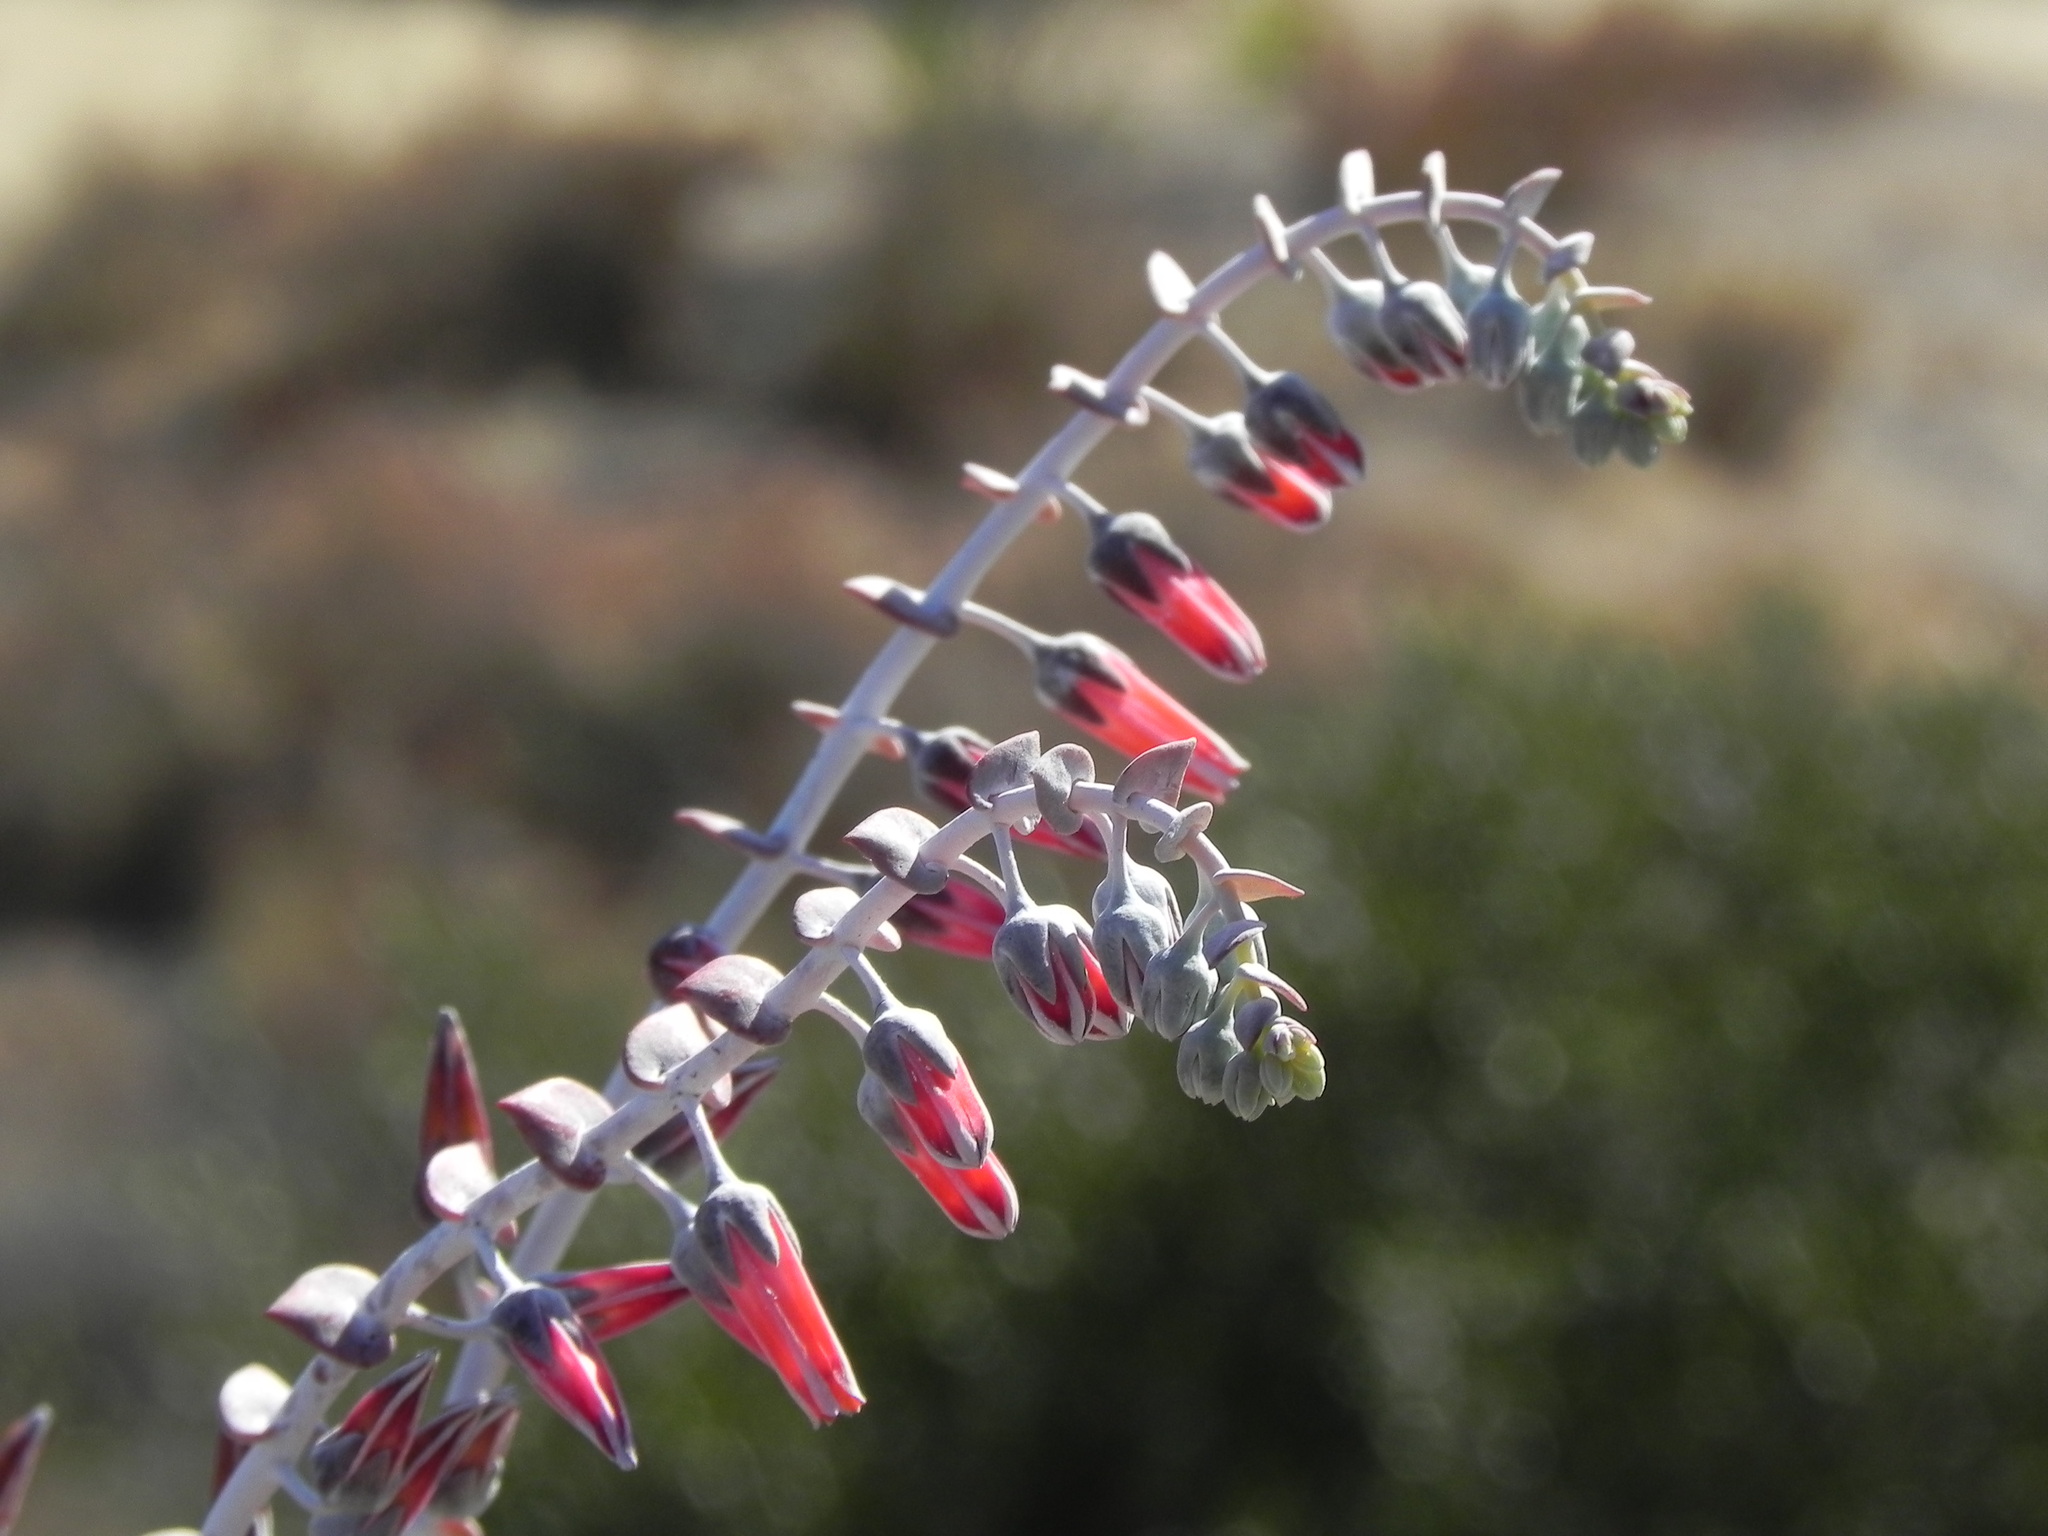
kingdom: Plantae
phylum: Tracheophyta
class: Magnoliopsida
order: Saxifragales
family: Crassulaceae
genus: Dudleya
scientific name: Dudleya pulverulenta
